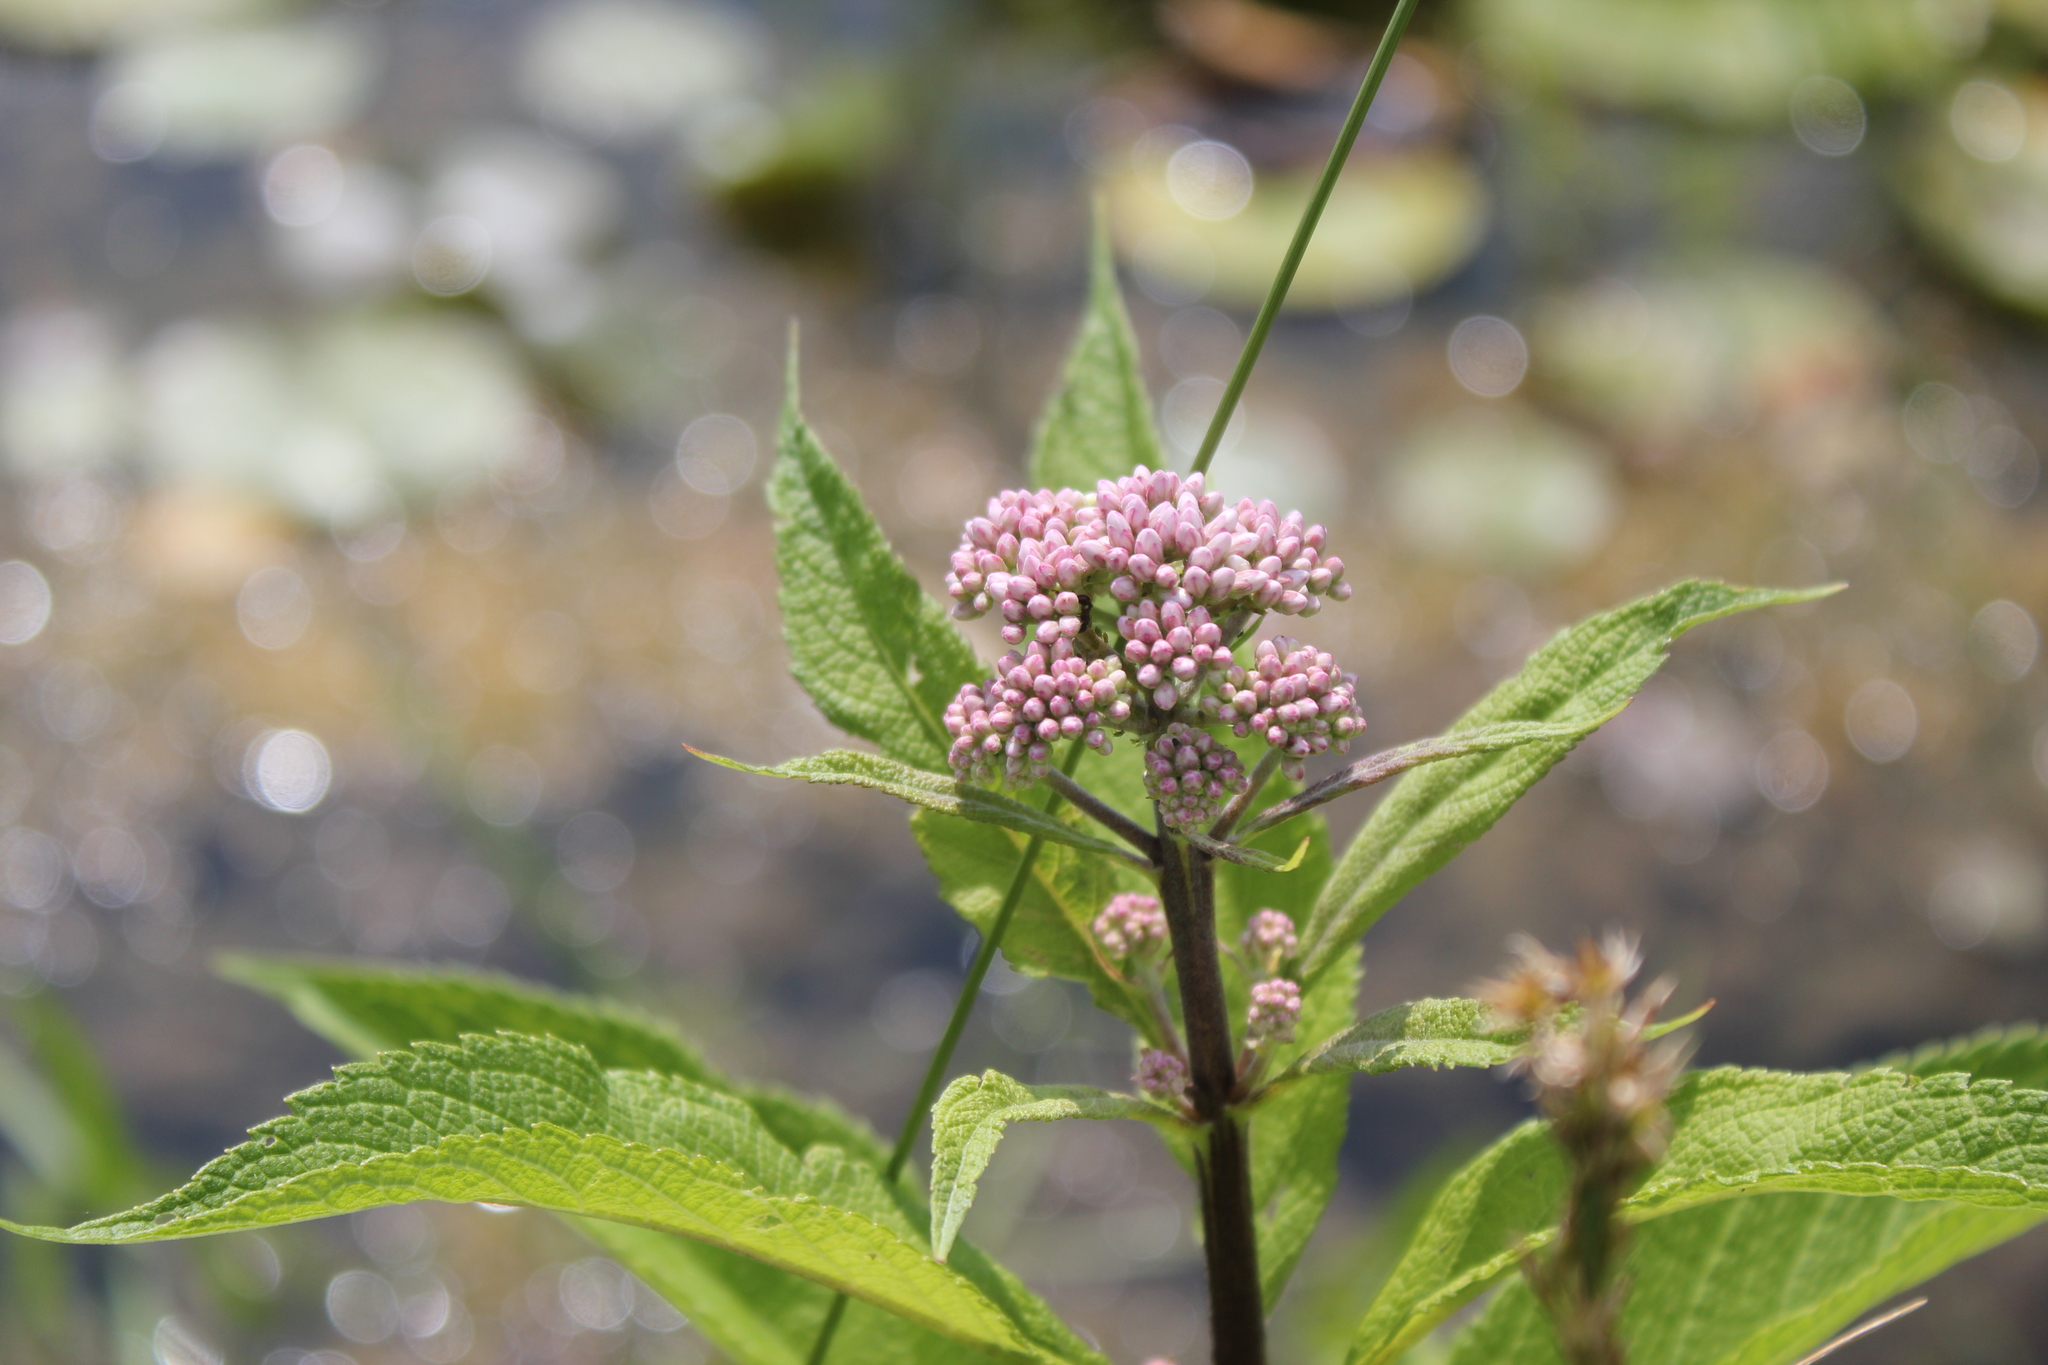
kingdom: Plantae
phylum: Tracheophyta
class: Magnoliopsida
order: Asterales
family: Asteraceae
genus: Eutrochium
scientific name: Eutrochium maculatum
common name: Spotted joe pye weed
